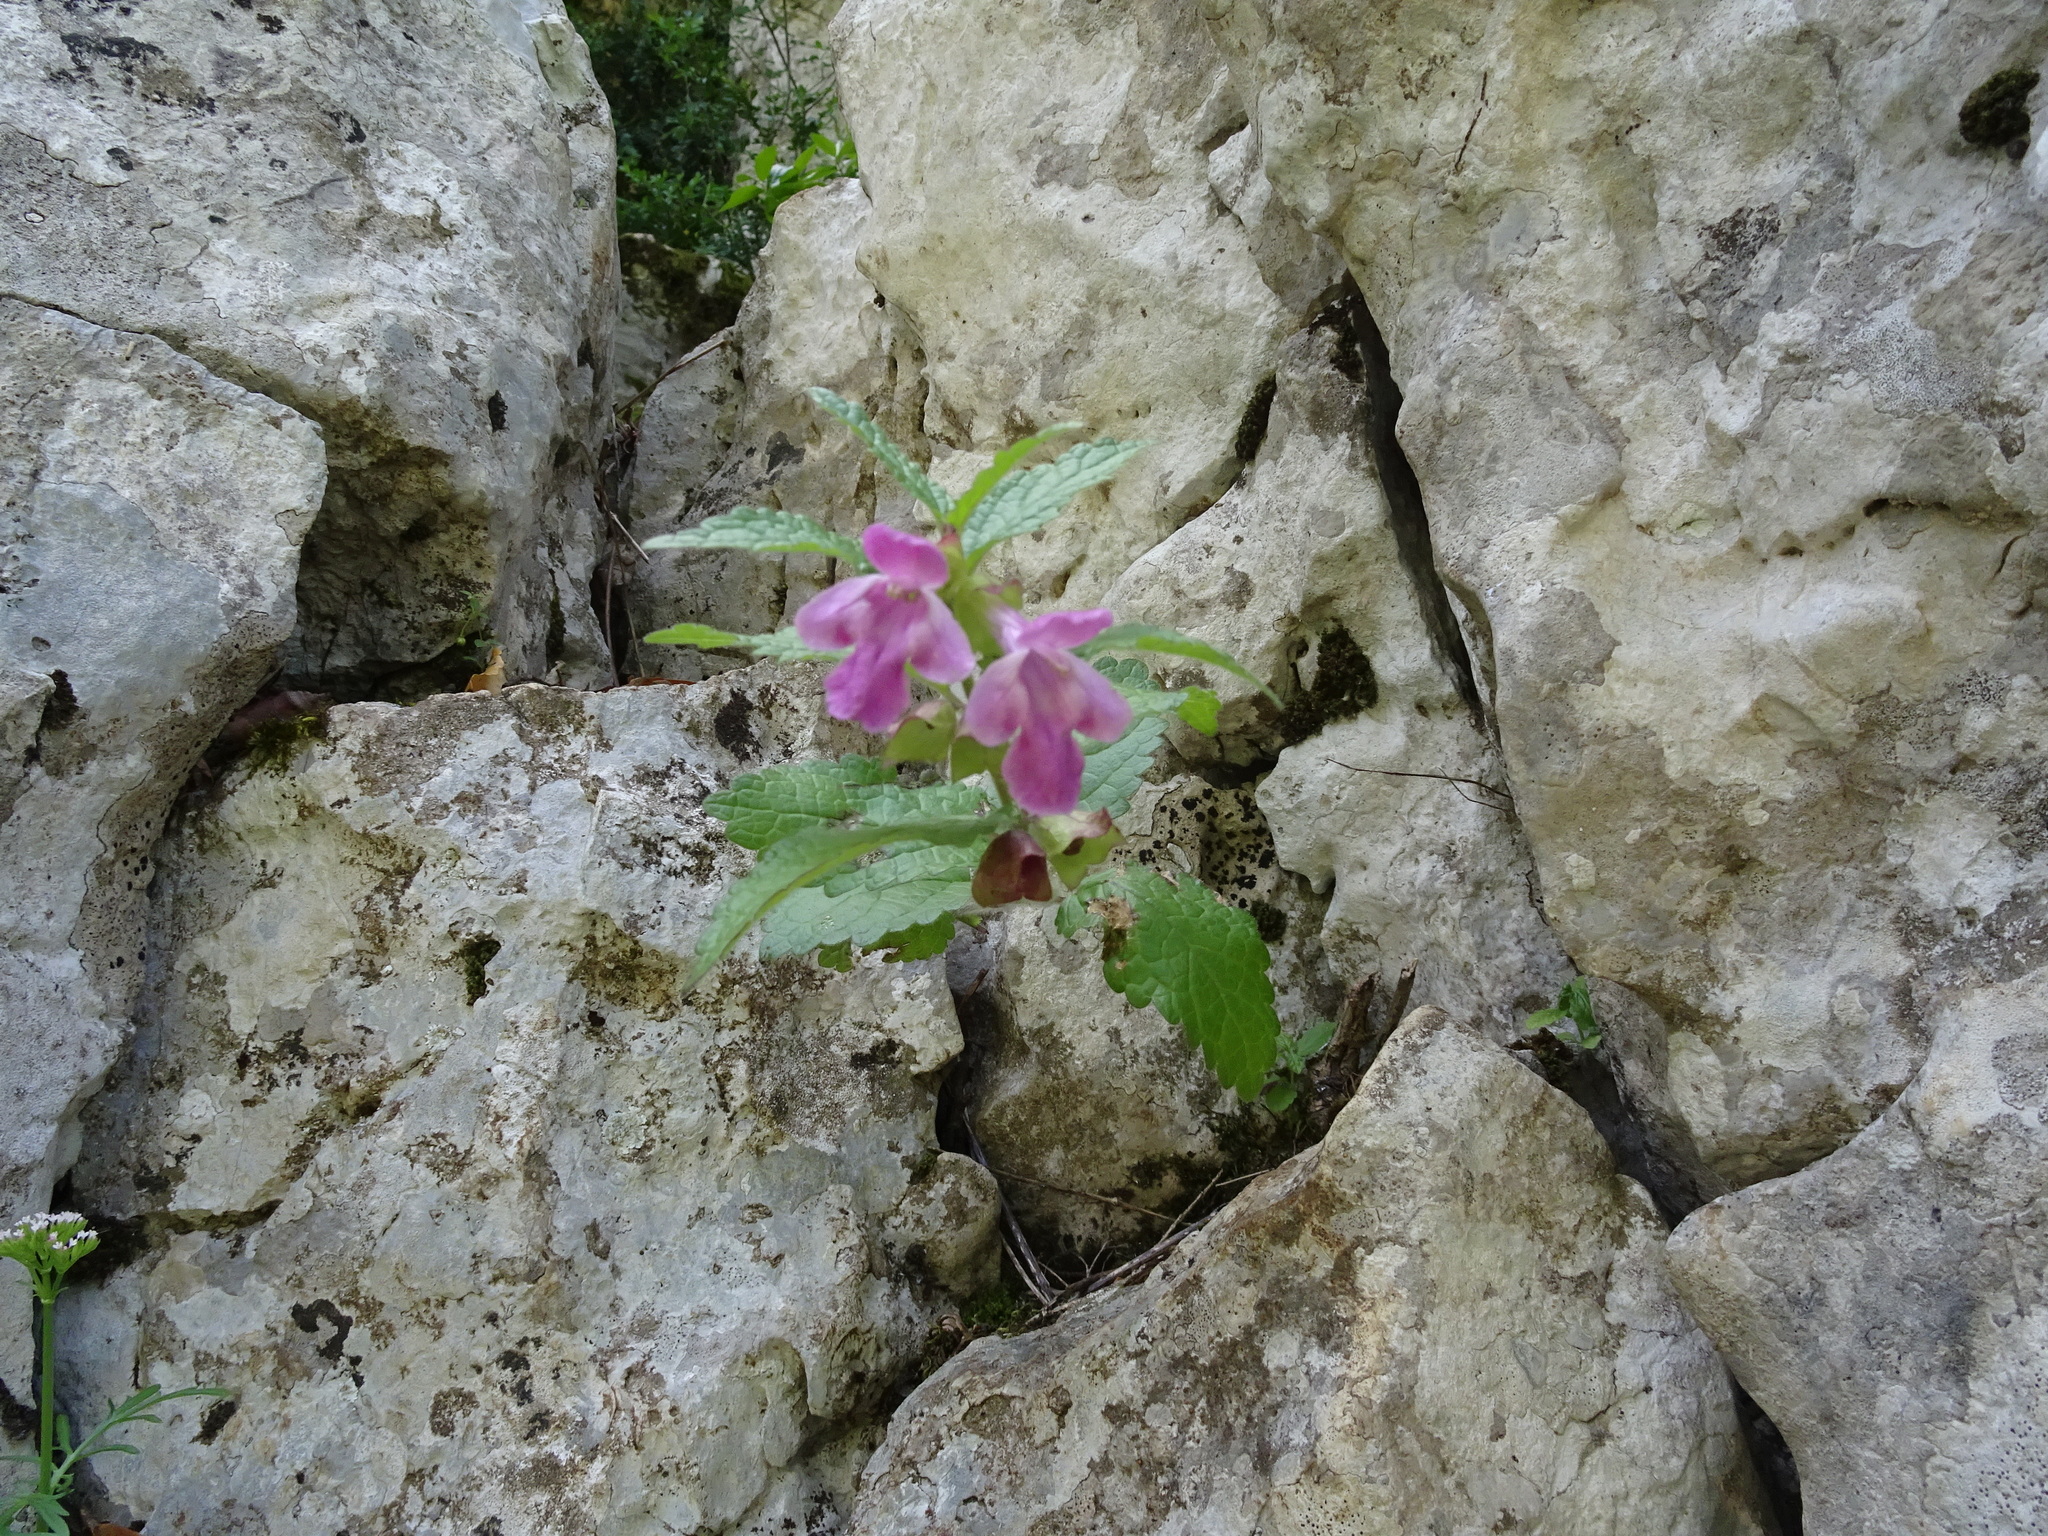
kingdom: Plantae
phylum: Tracheophyta
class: Magnoliopsida
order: Lamiales
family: Lamiaceae
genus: Melittis
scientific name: Melittis melissophyllum
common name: Bastard balm
